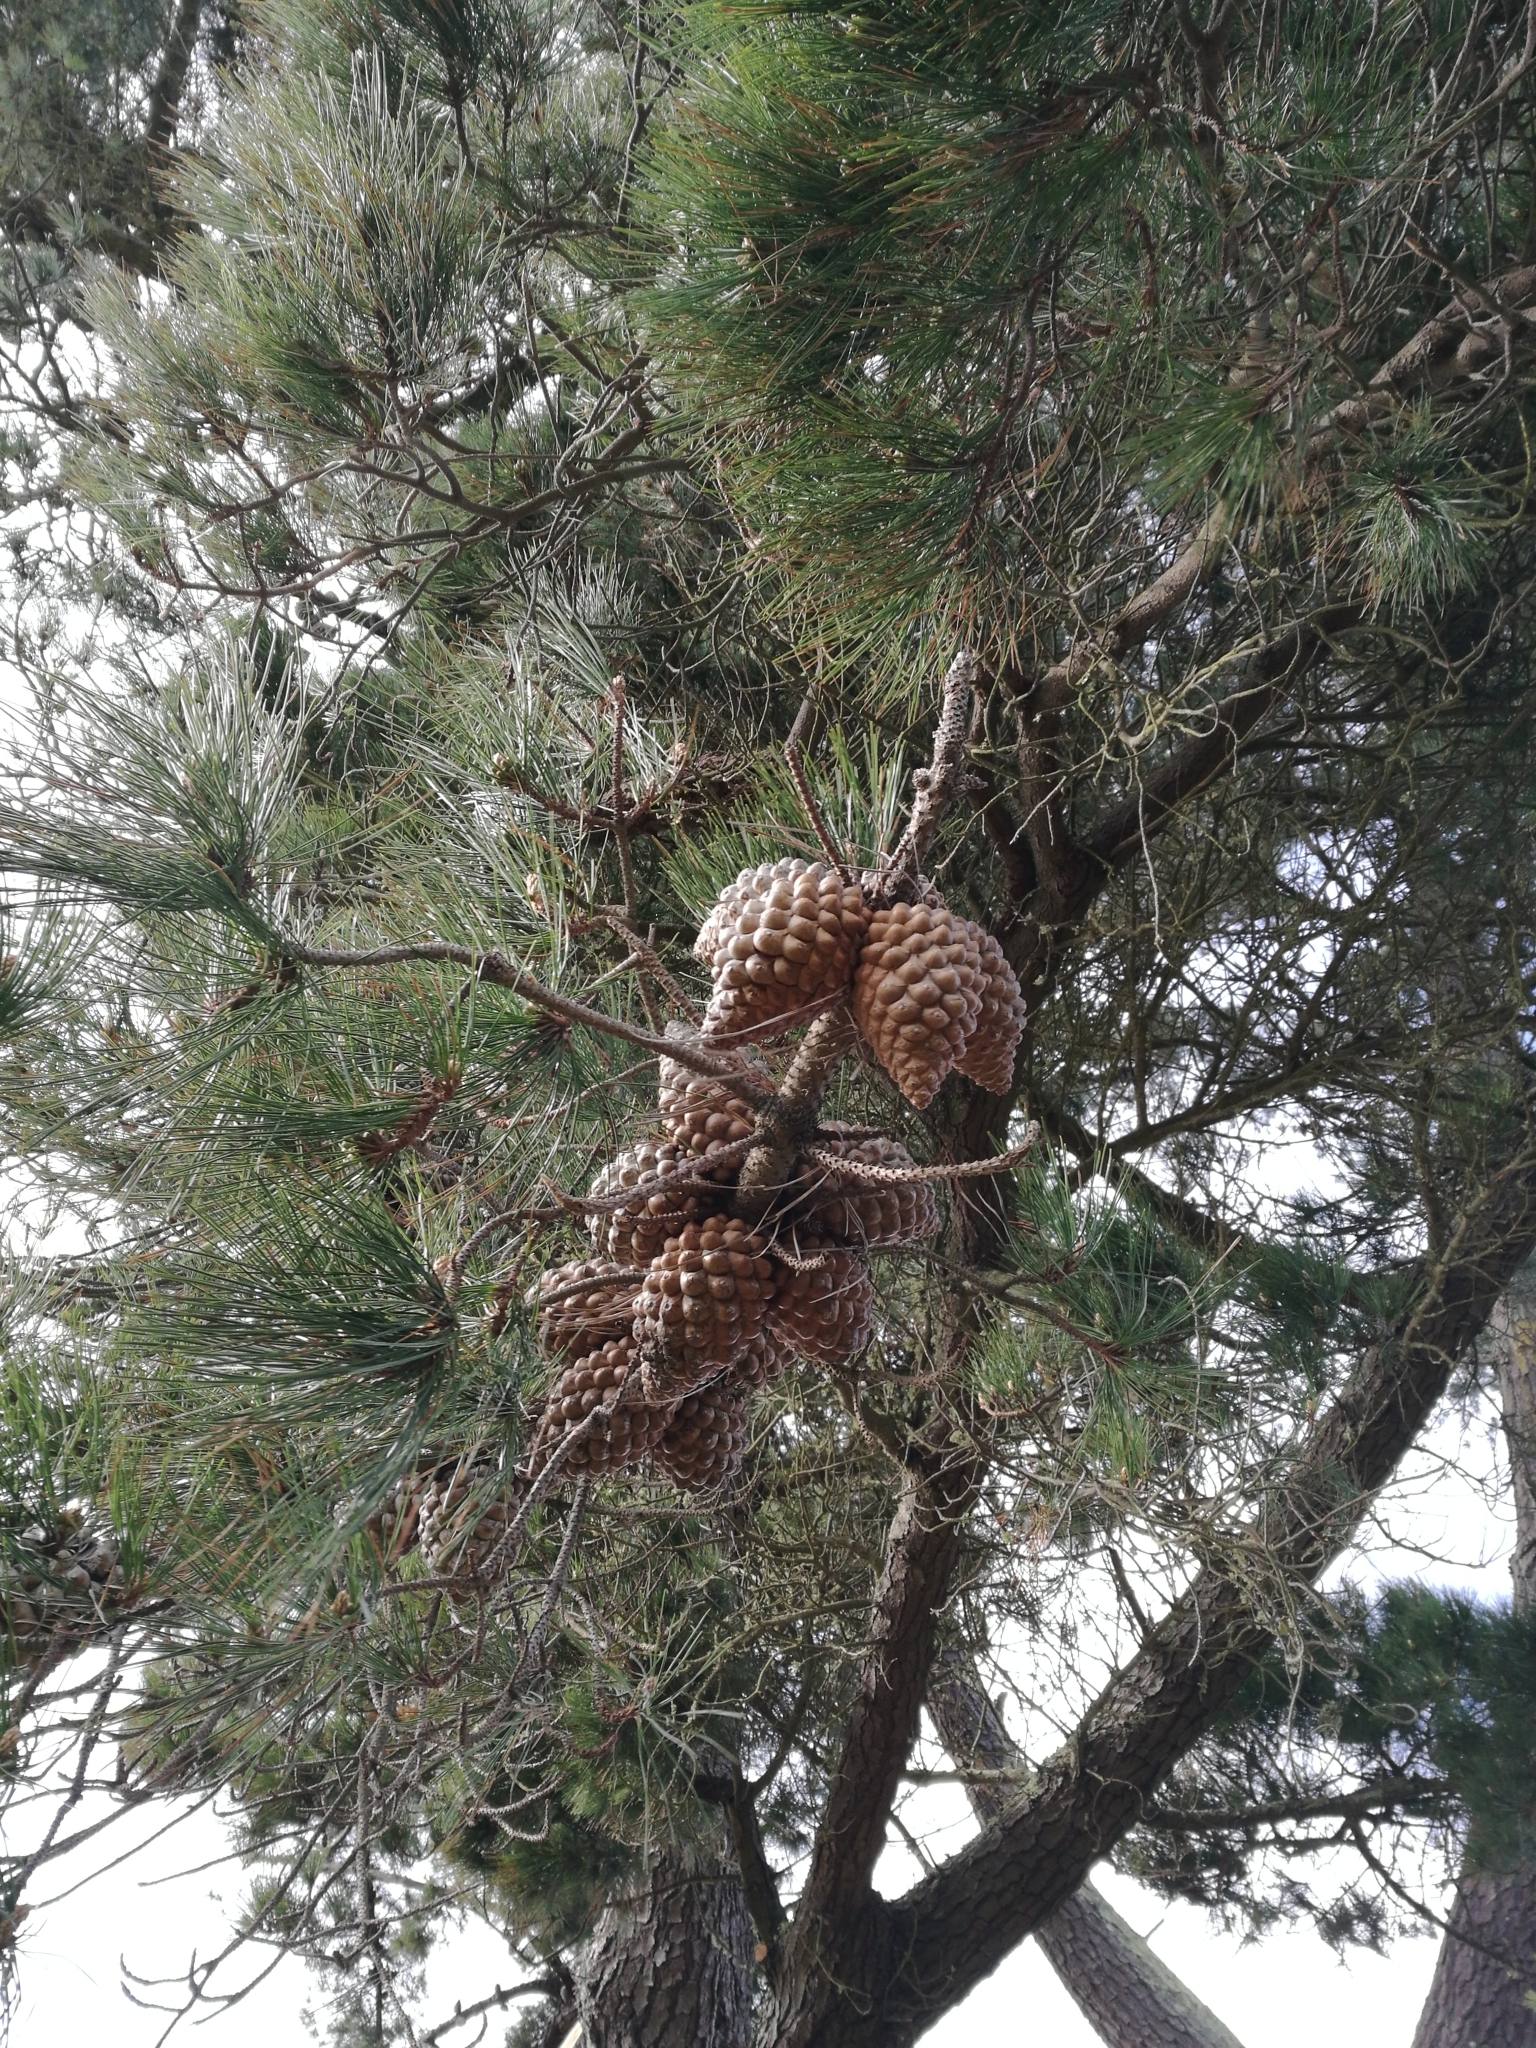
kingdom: Plantae
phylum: Tracheophyta
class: Pinopsida
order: Pinales
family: Pinaceae
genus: Pinus
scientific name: Pinus radiata
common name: Monterey pine
